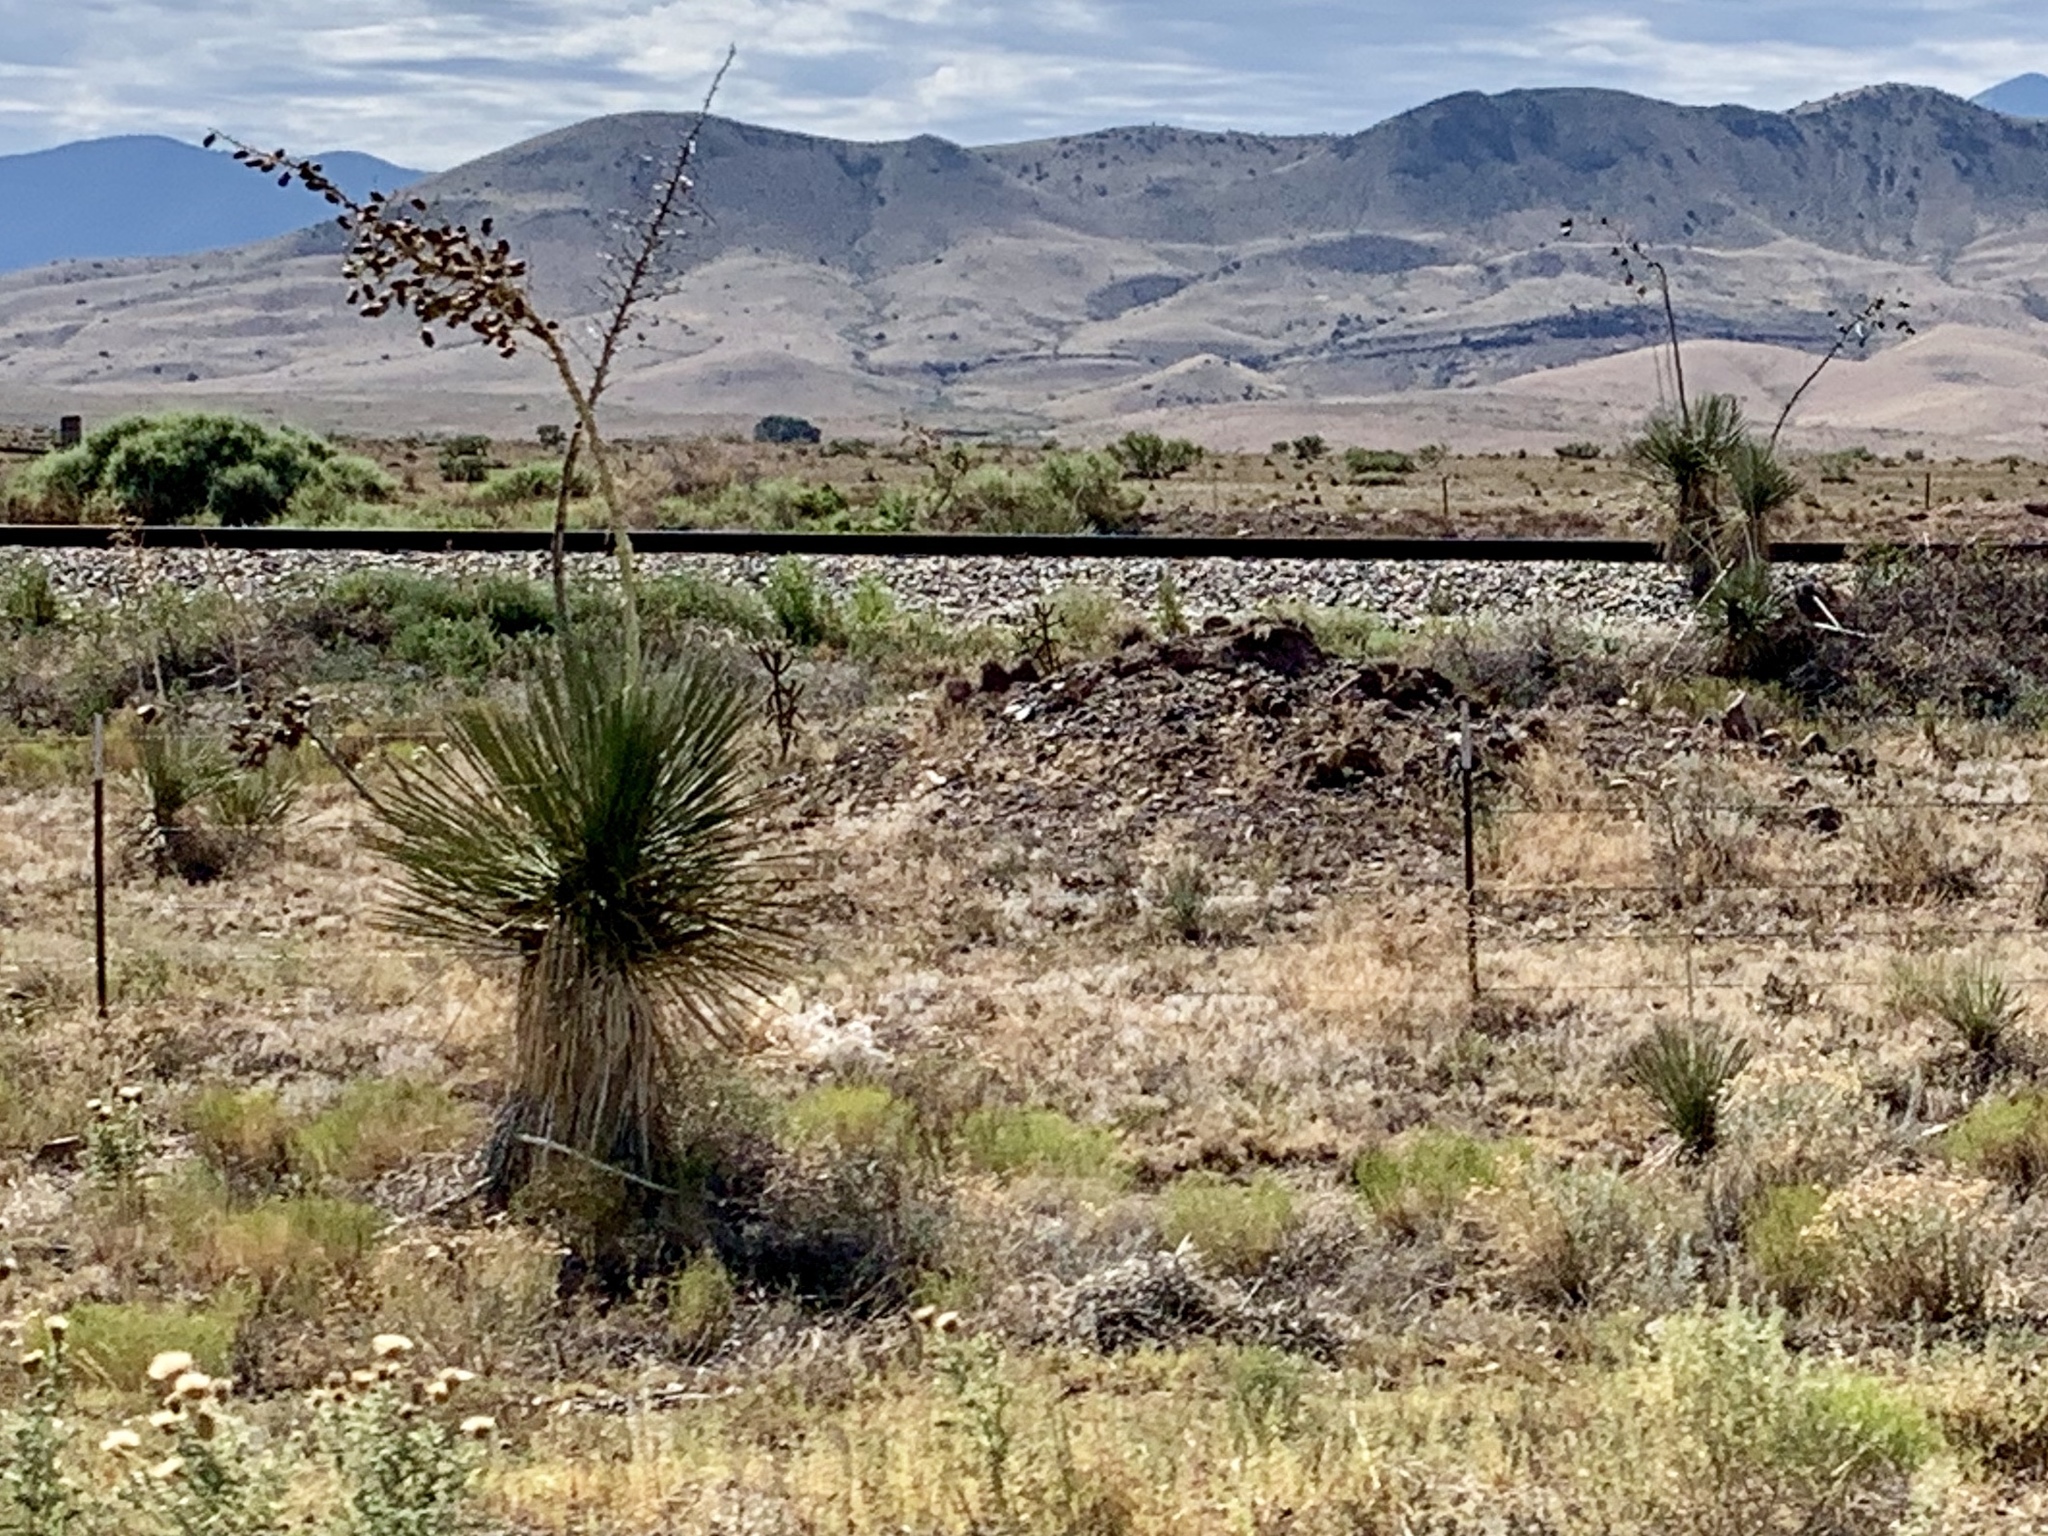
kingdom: Plantae
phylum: Tracheophyta
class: Liliopsida
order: Asparagales
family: Asparagaceae
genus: Yucca
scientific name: Yucca elata
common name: Palmella
